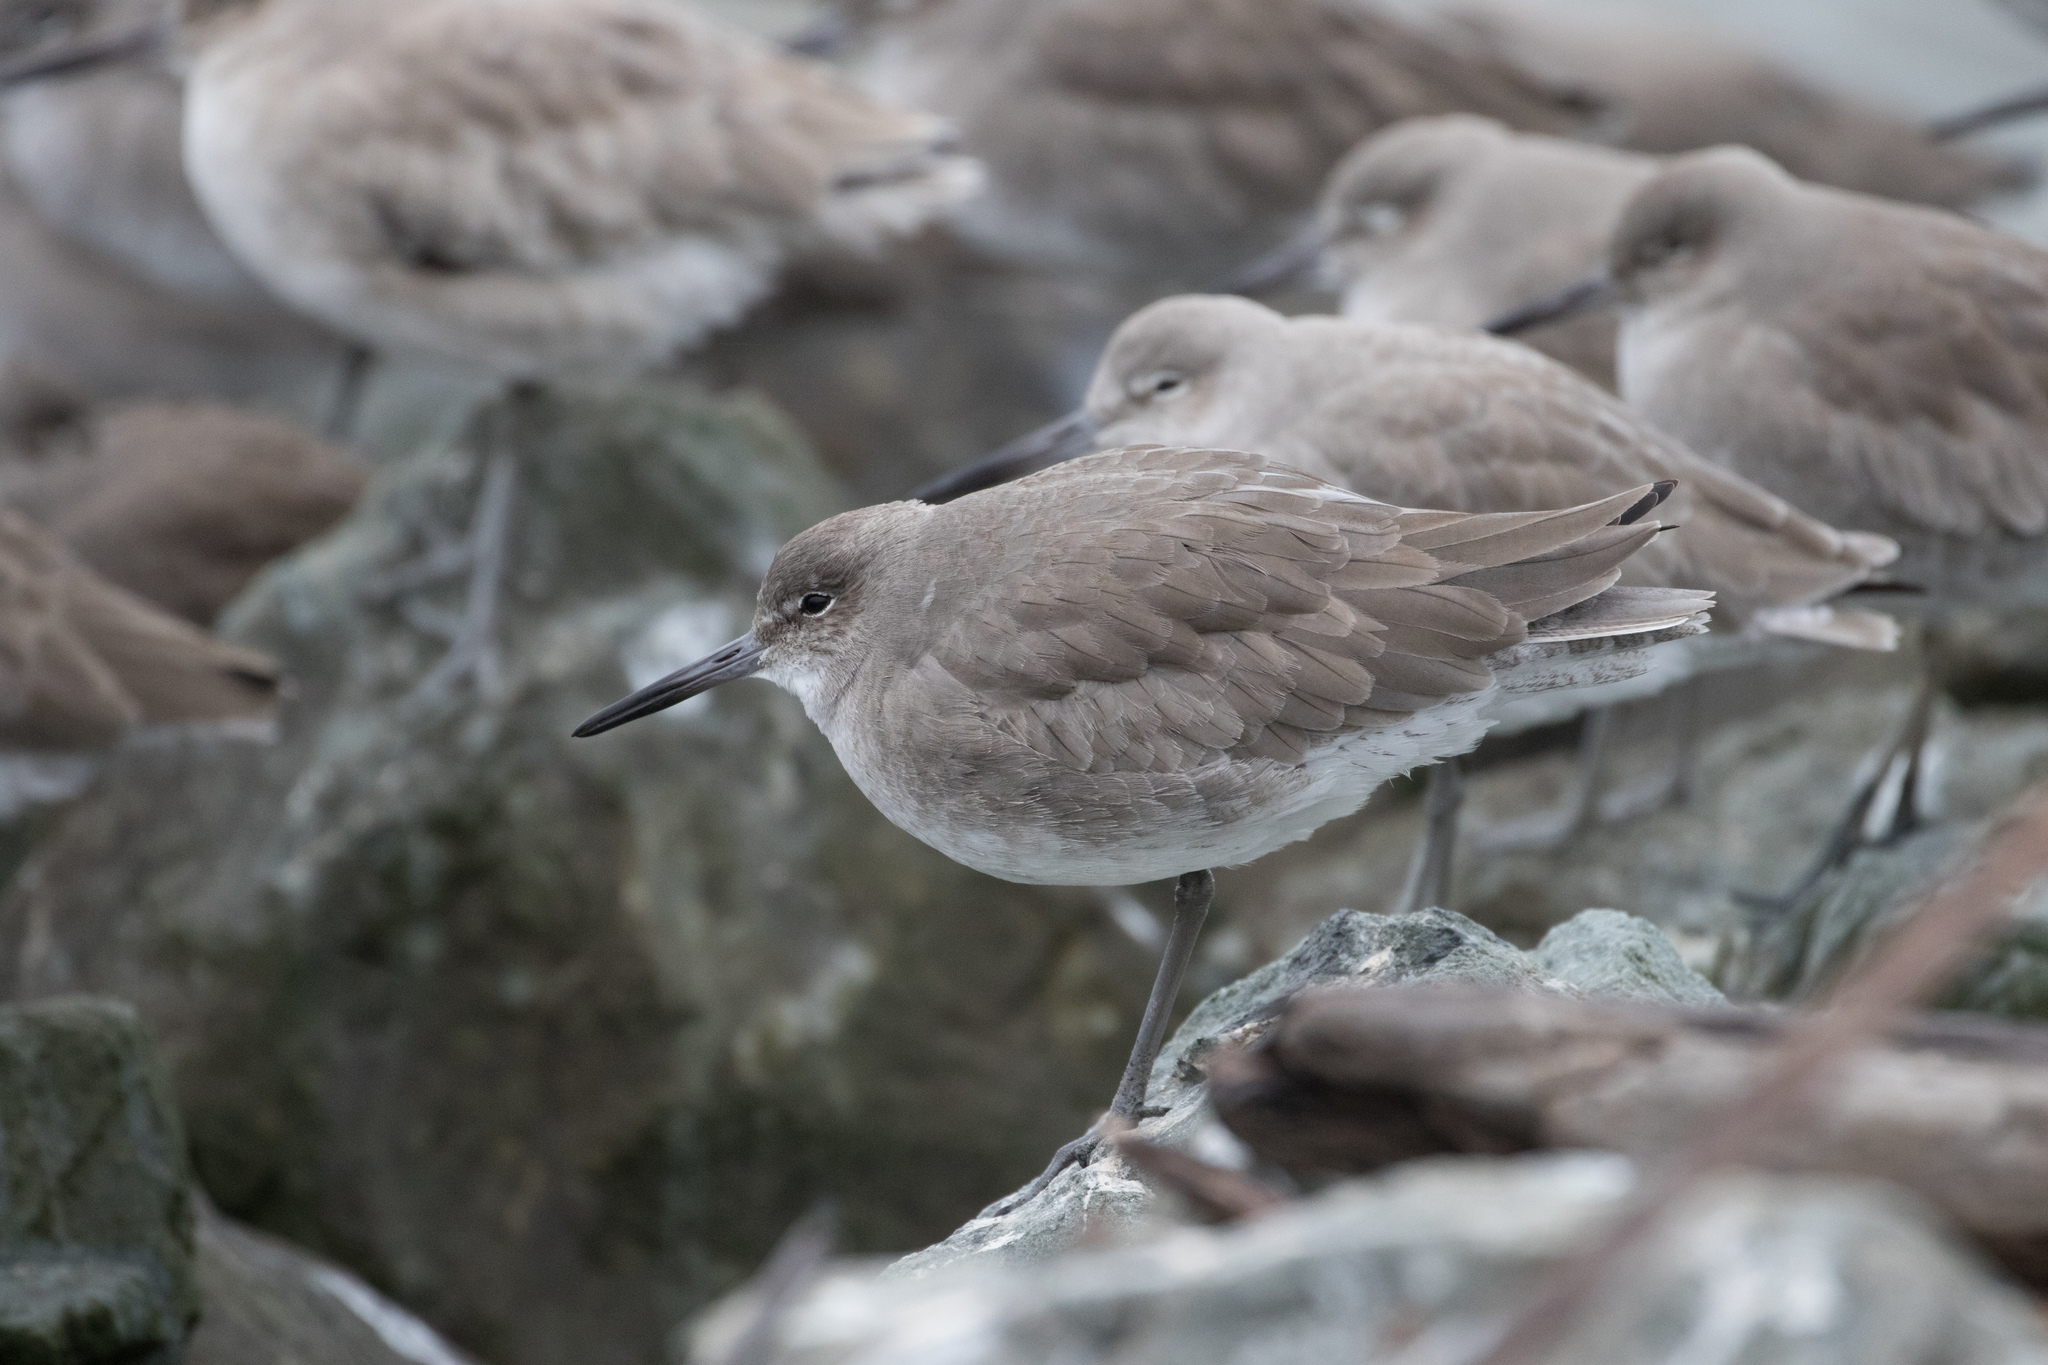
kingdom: Animalia
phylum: Chordata
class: Aves
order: Charadriiformes
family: Scolopacidae
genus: Tringa
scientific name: Tringa semipalmata
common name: Willet
